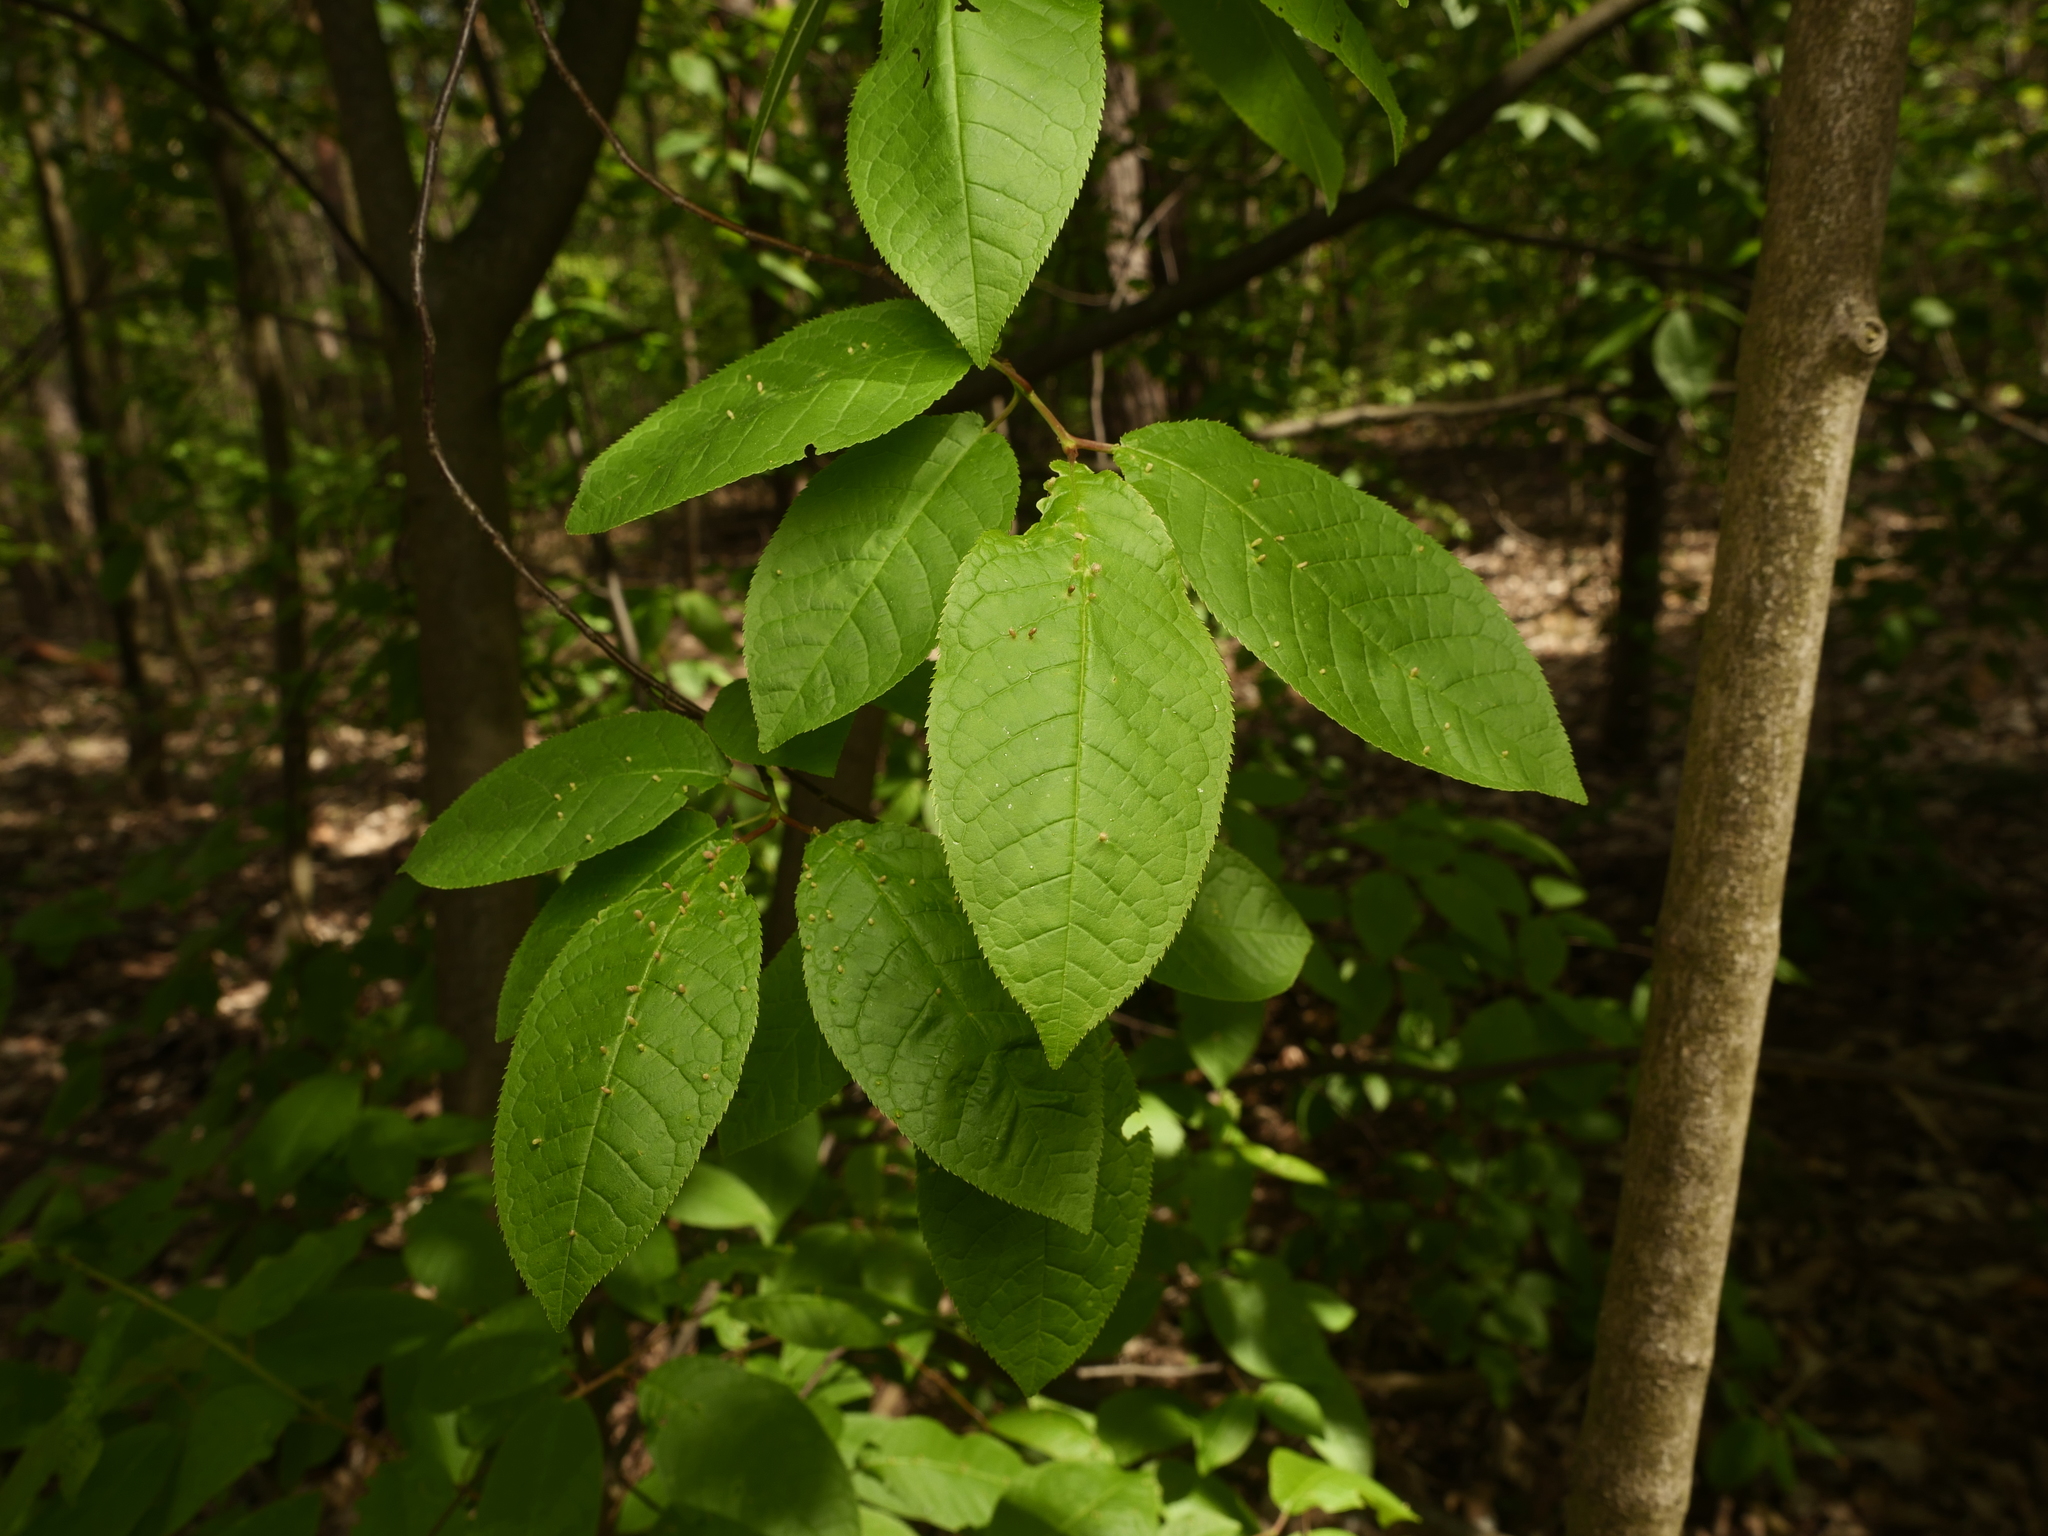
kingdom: Plantae
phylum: Tracheophyta
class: Magnoliopsida
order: Rosales
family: Rosaceae
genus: Prunus
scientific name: Prunus padus
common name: Bird cherry
